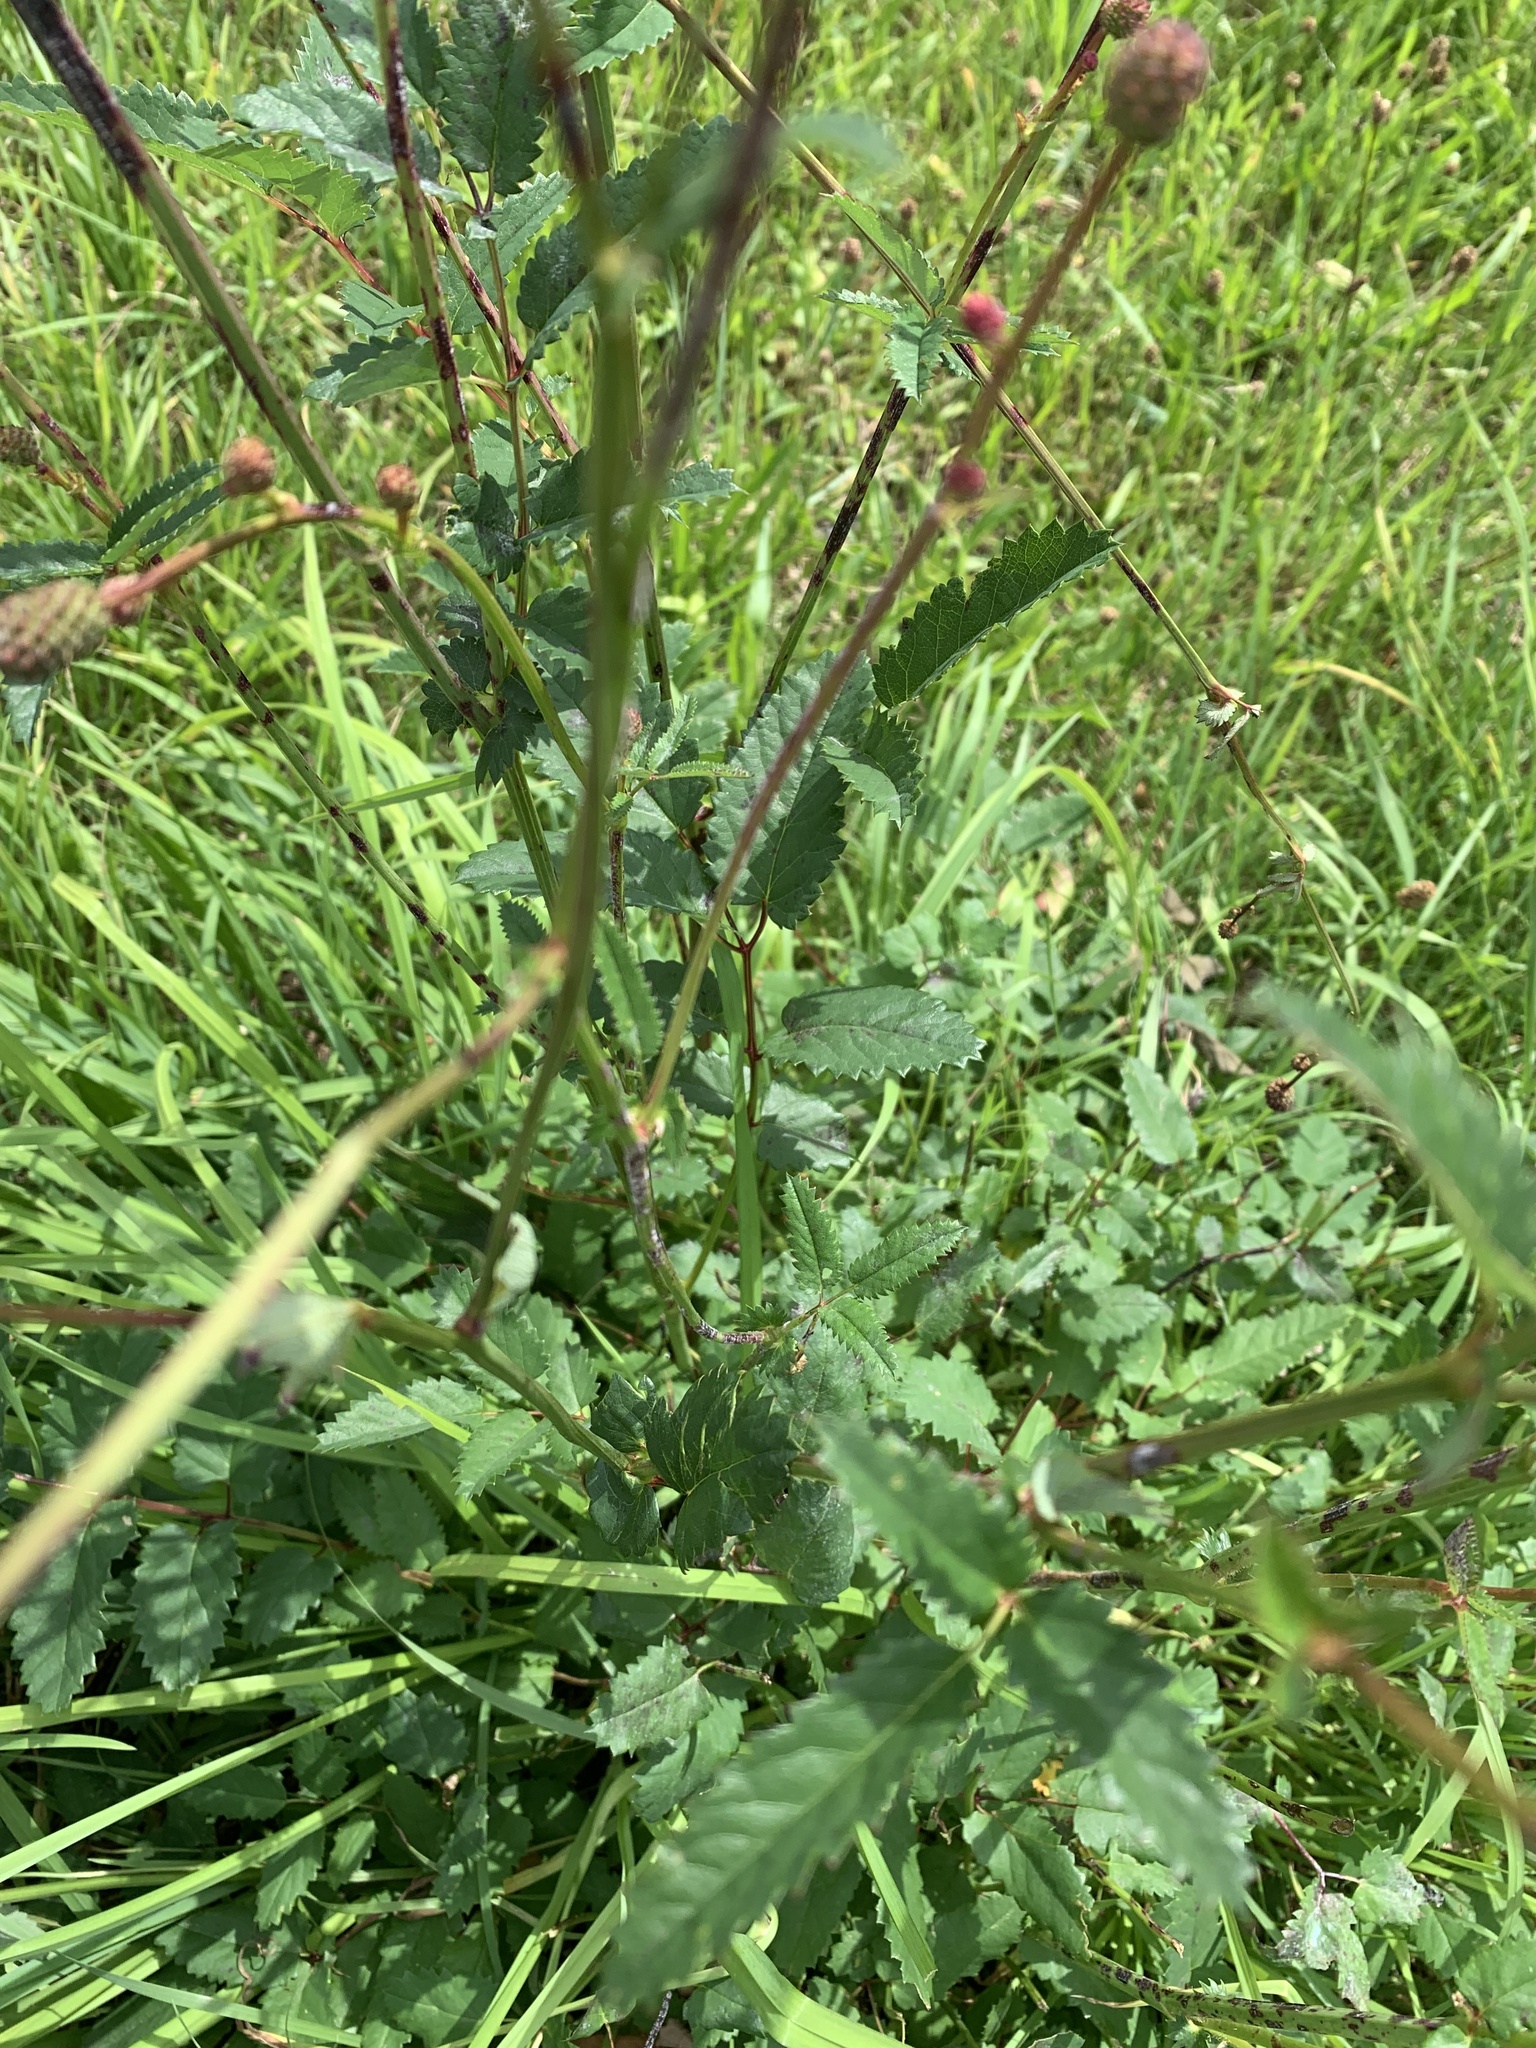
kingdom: Plantae
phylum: Tracheophyta
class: Magnoliopsida
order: Rosales
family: Rosaceae
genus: Sanguisorba
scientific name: Sanguisorba officinalis
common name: Great burnet
